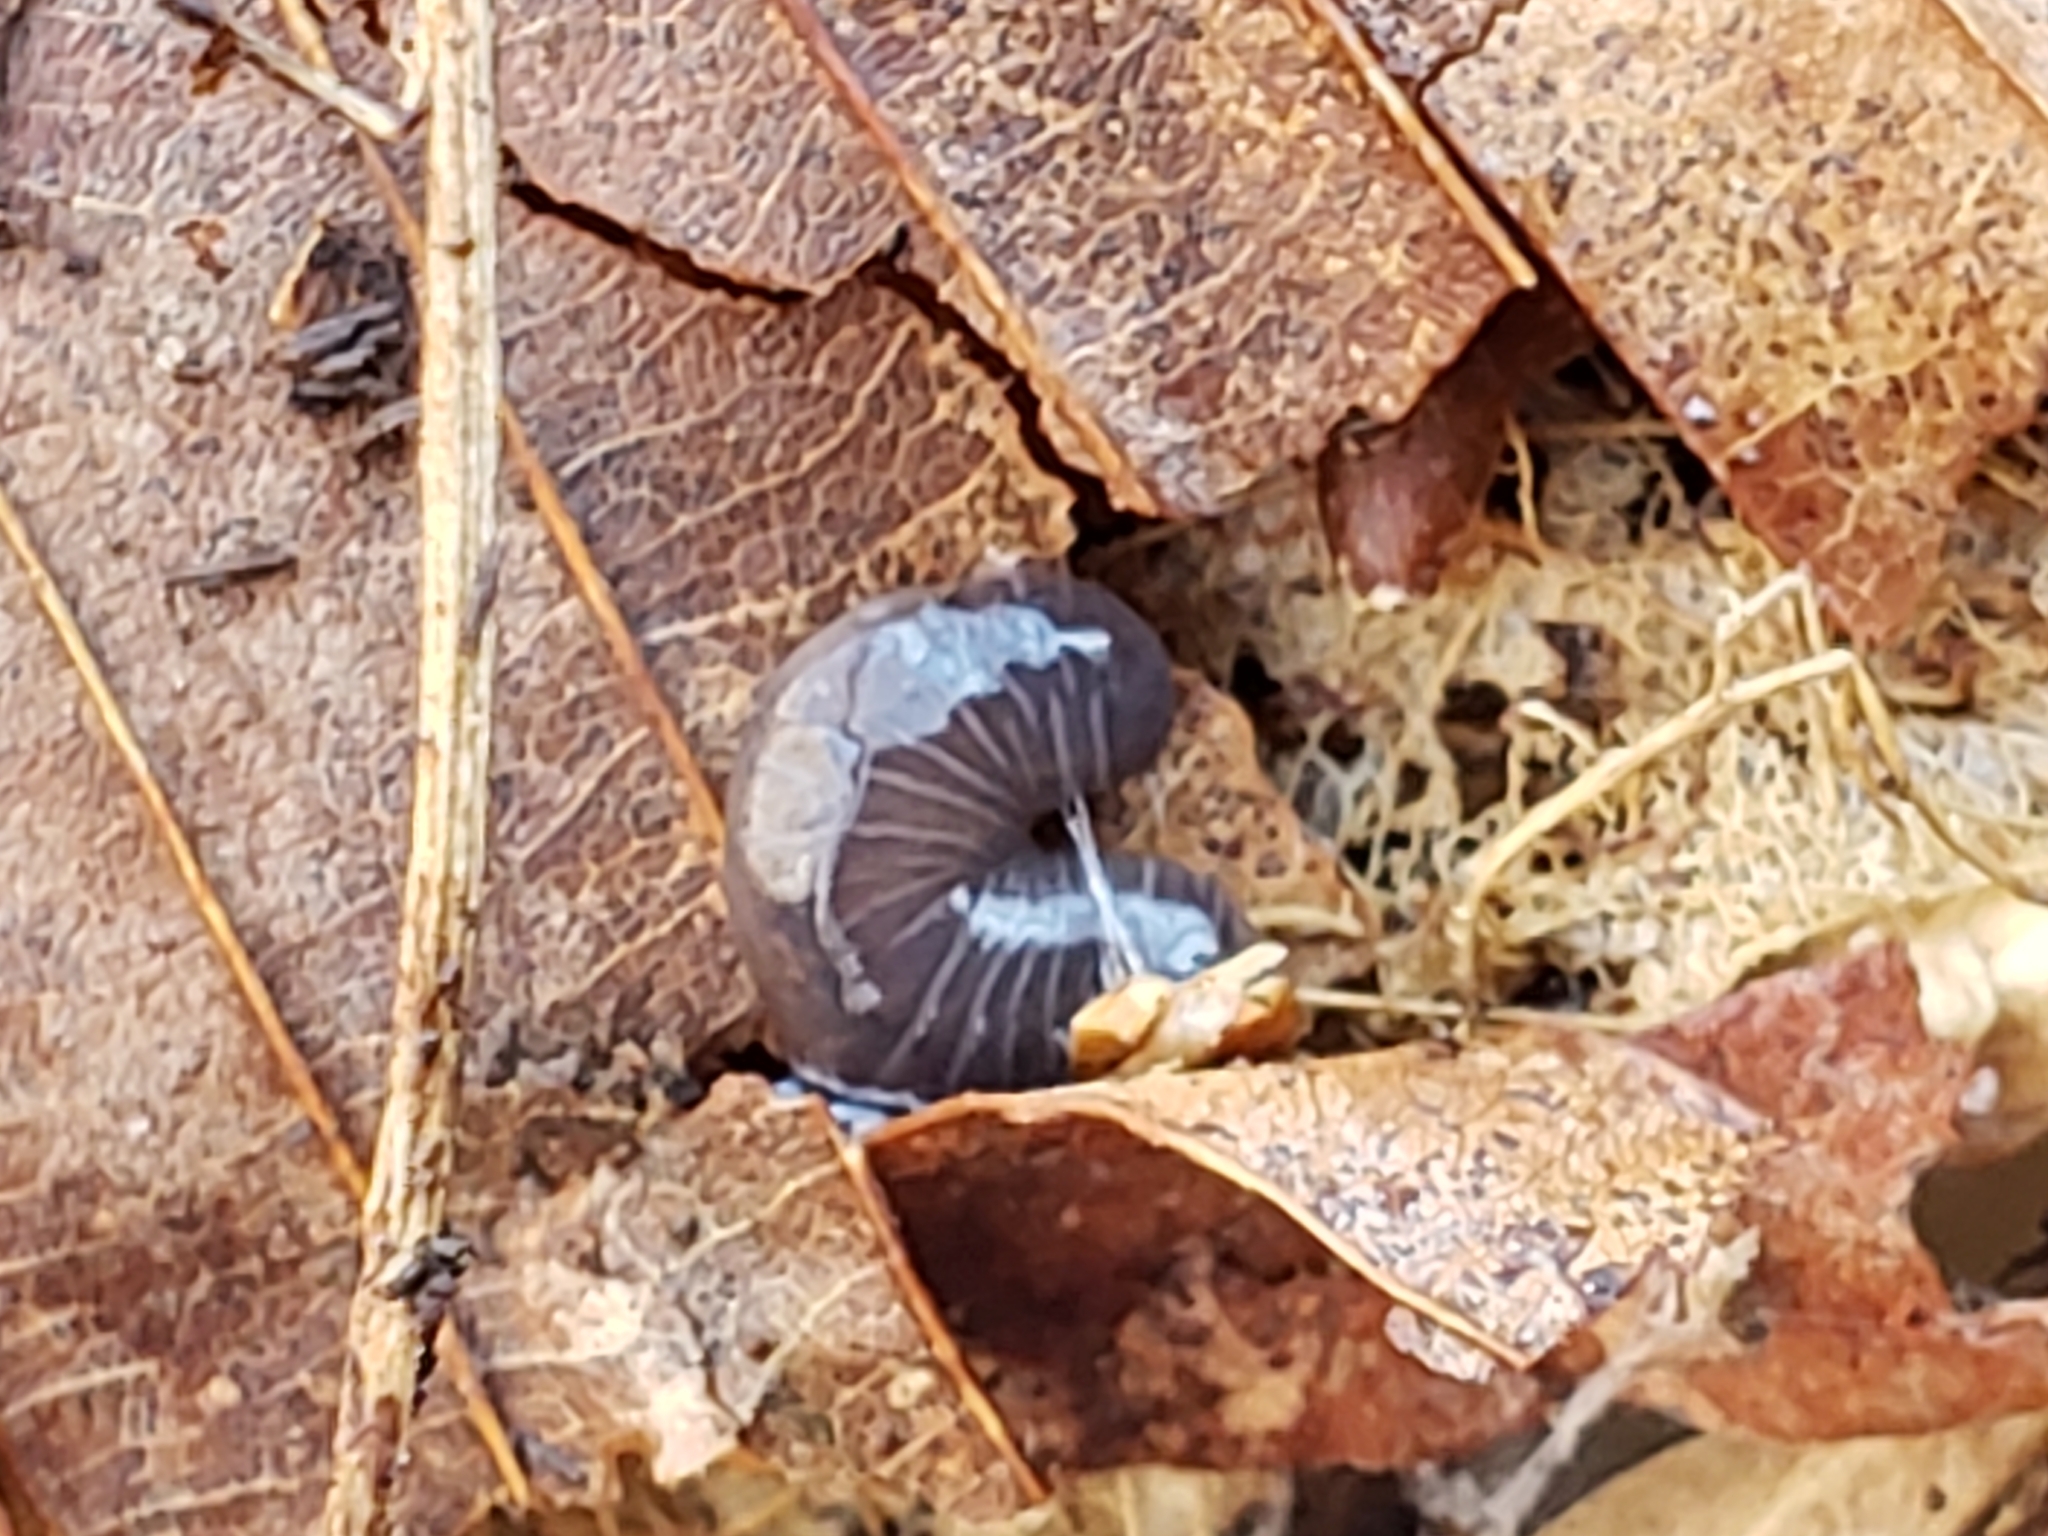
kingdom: Animalia
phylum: Platyhelminthes
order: Tricladida
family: Geoplanidae
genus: Microplana
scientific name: Microplana terrestris
